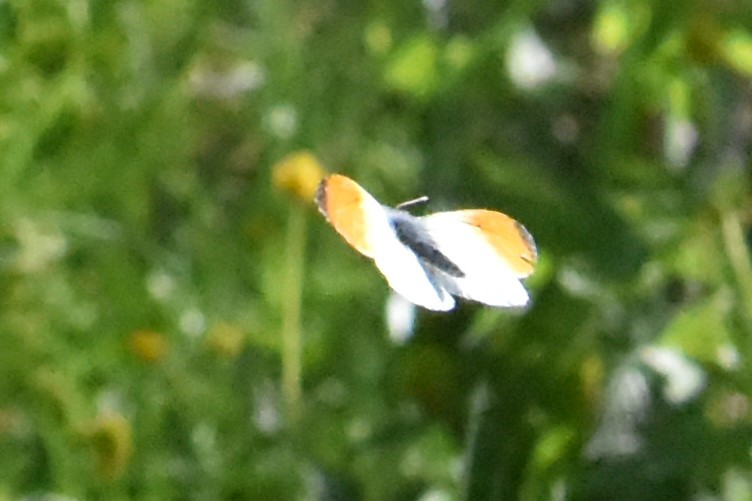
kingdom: Animalia
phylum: Arthropoda
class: Insecta
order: Lepidoptera
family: Pieridae
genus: Anthocharis
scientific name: Anthocharis cardamines
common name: Orange-tip
